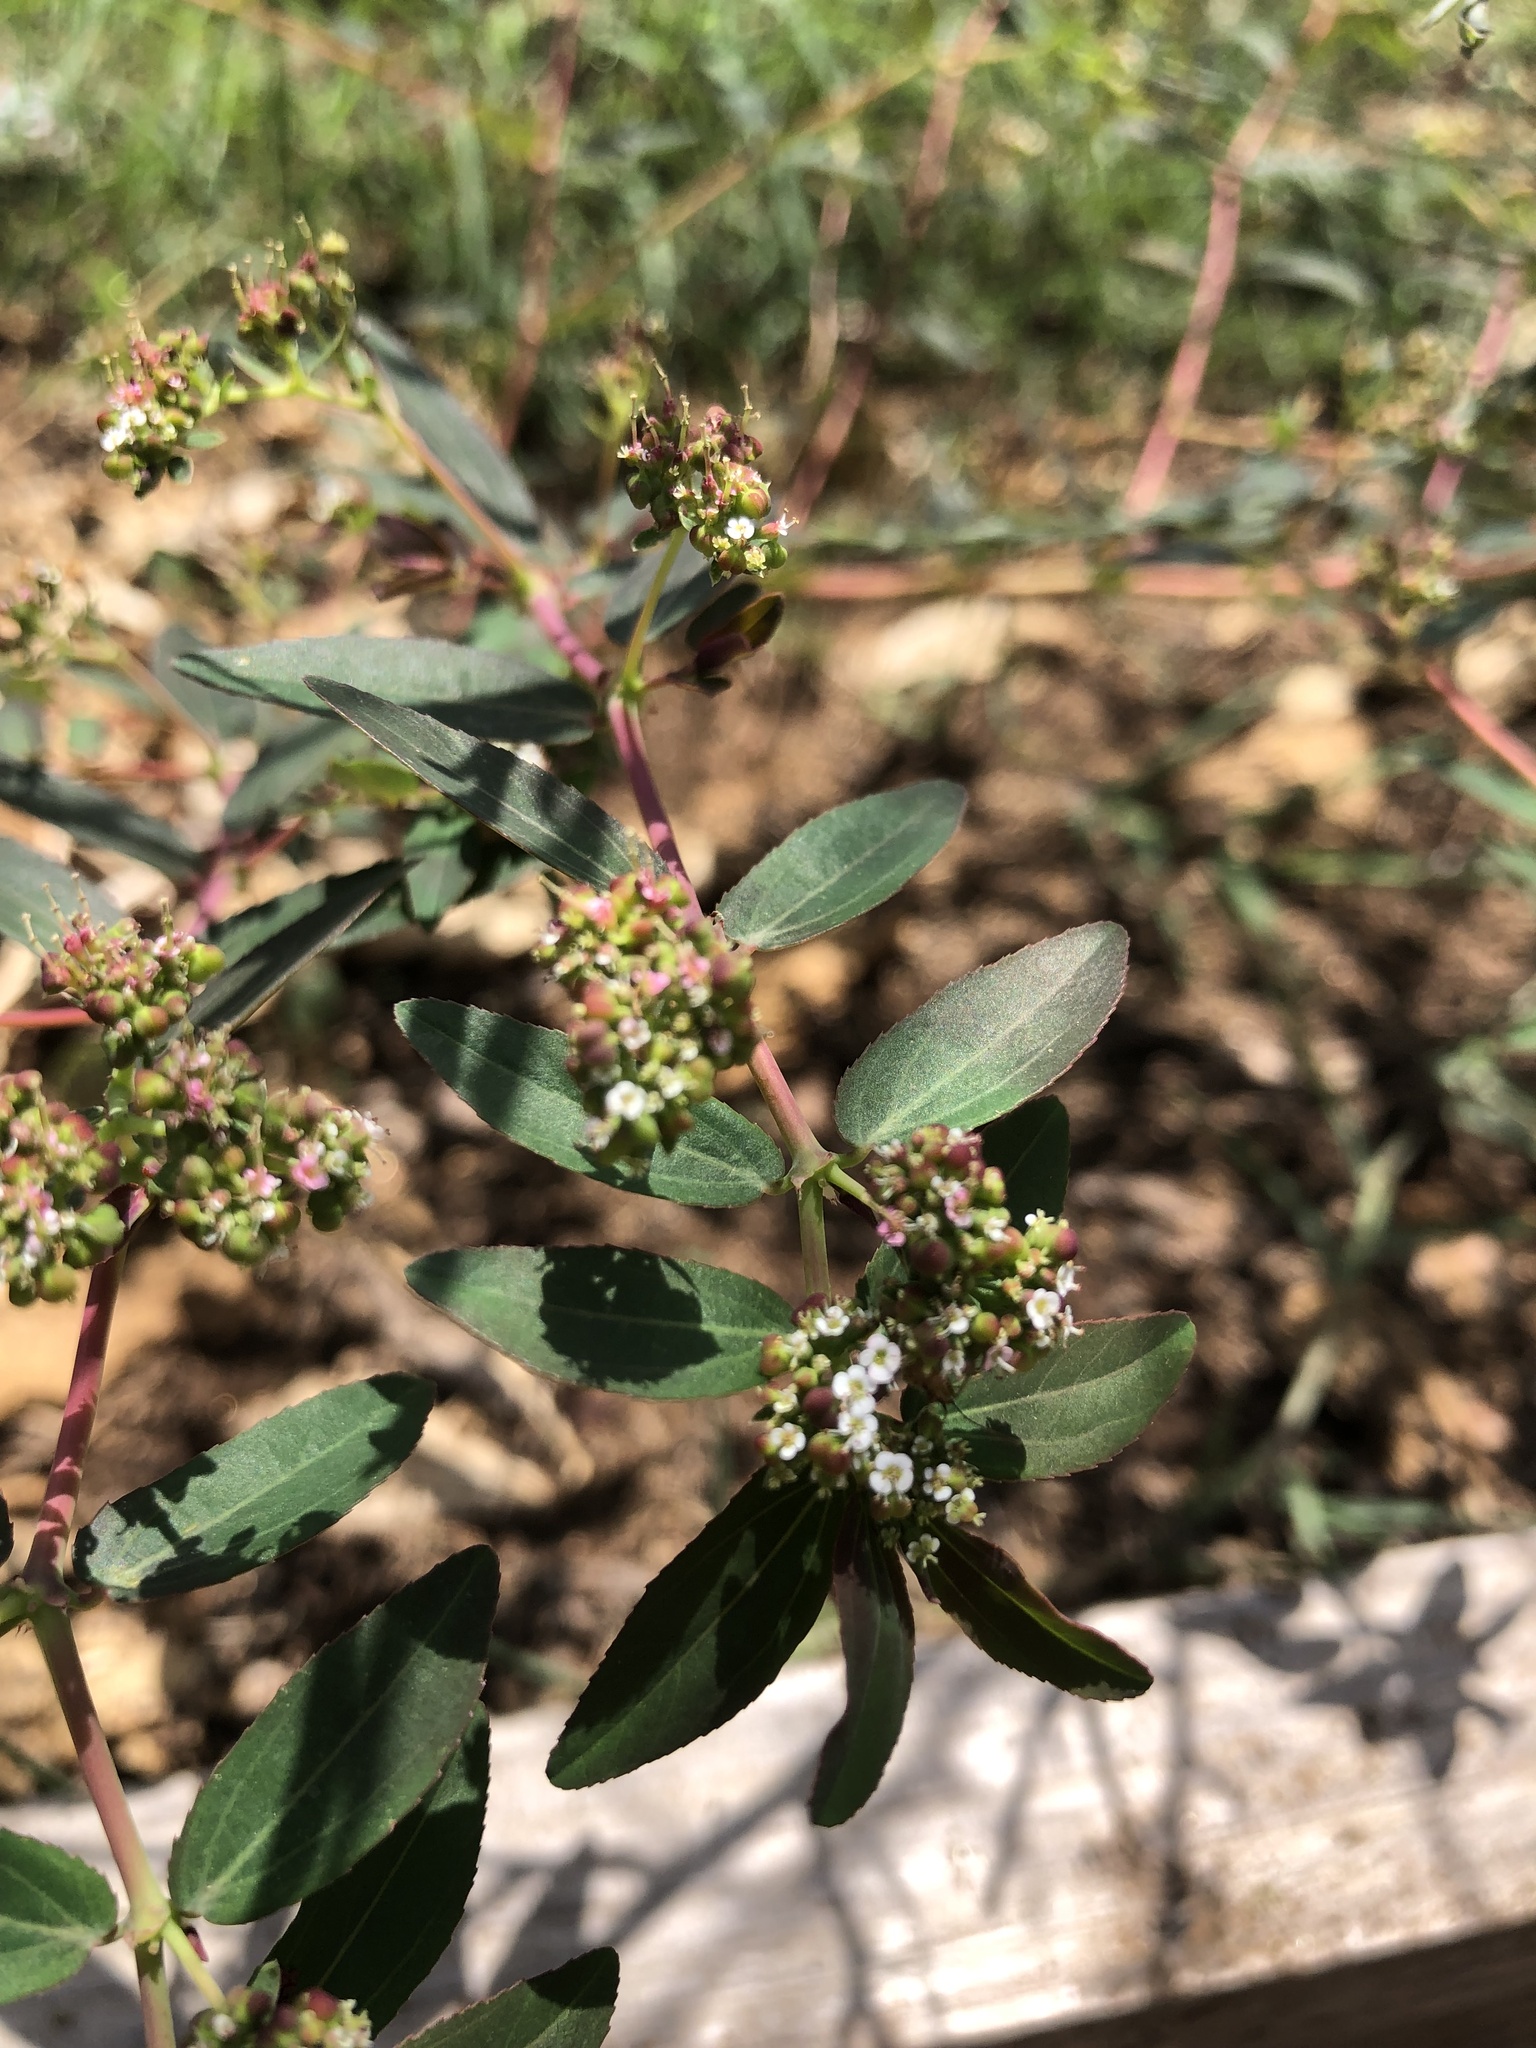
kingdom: Plantae
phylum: Tracheophyta
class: Magnoliopsida
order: Malpighiales
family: Euphorbiaceae
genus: Euphorbia
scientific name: Euphorbia hypericifolia
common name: Graceful sandmat
